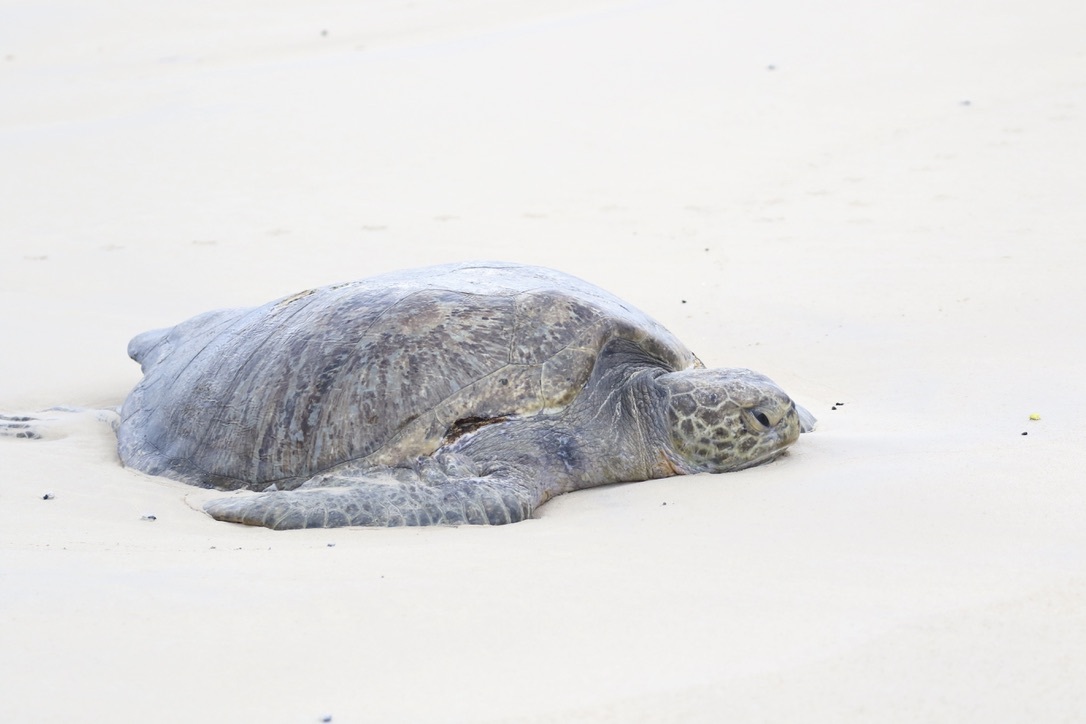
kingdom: Animalia
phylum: Chordata
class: Testudines
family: Cheloniidae
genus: Chelonia
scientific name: Chelonia mydas
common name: Green turtle
